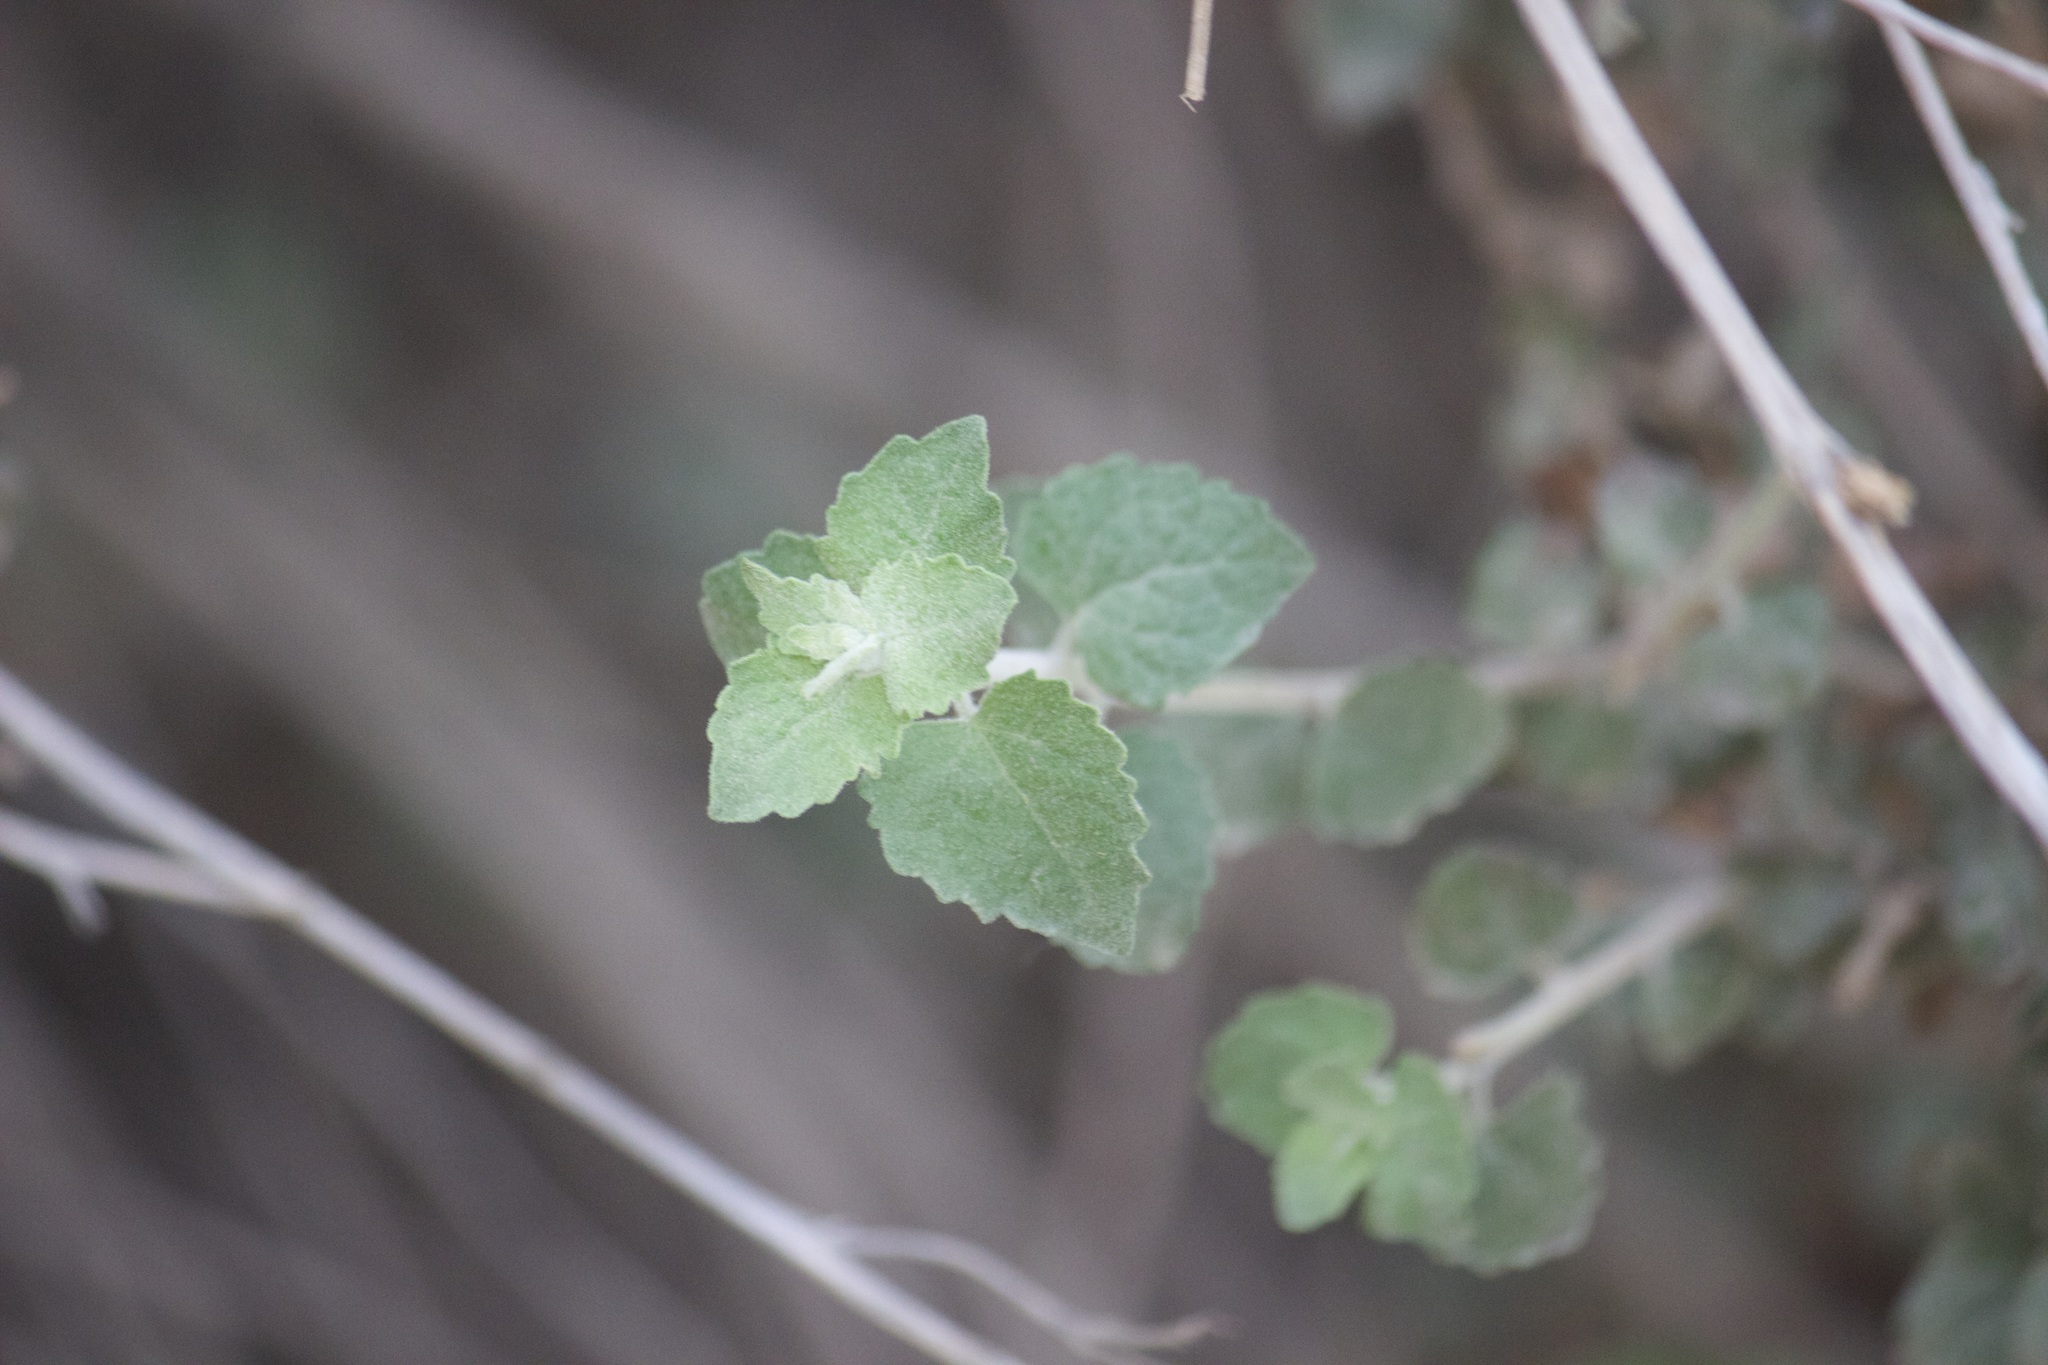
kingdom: Plantae
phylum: Tracheophyta
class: Magnoliopsida
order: Asterales
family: Asteraceae
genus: Brickellia
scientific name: Brickellia californica
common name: California brickellbush
